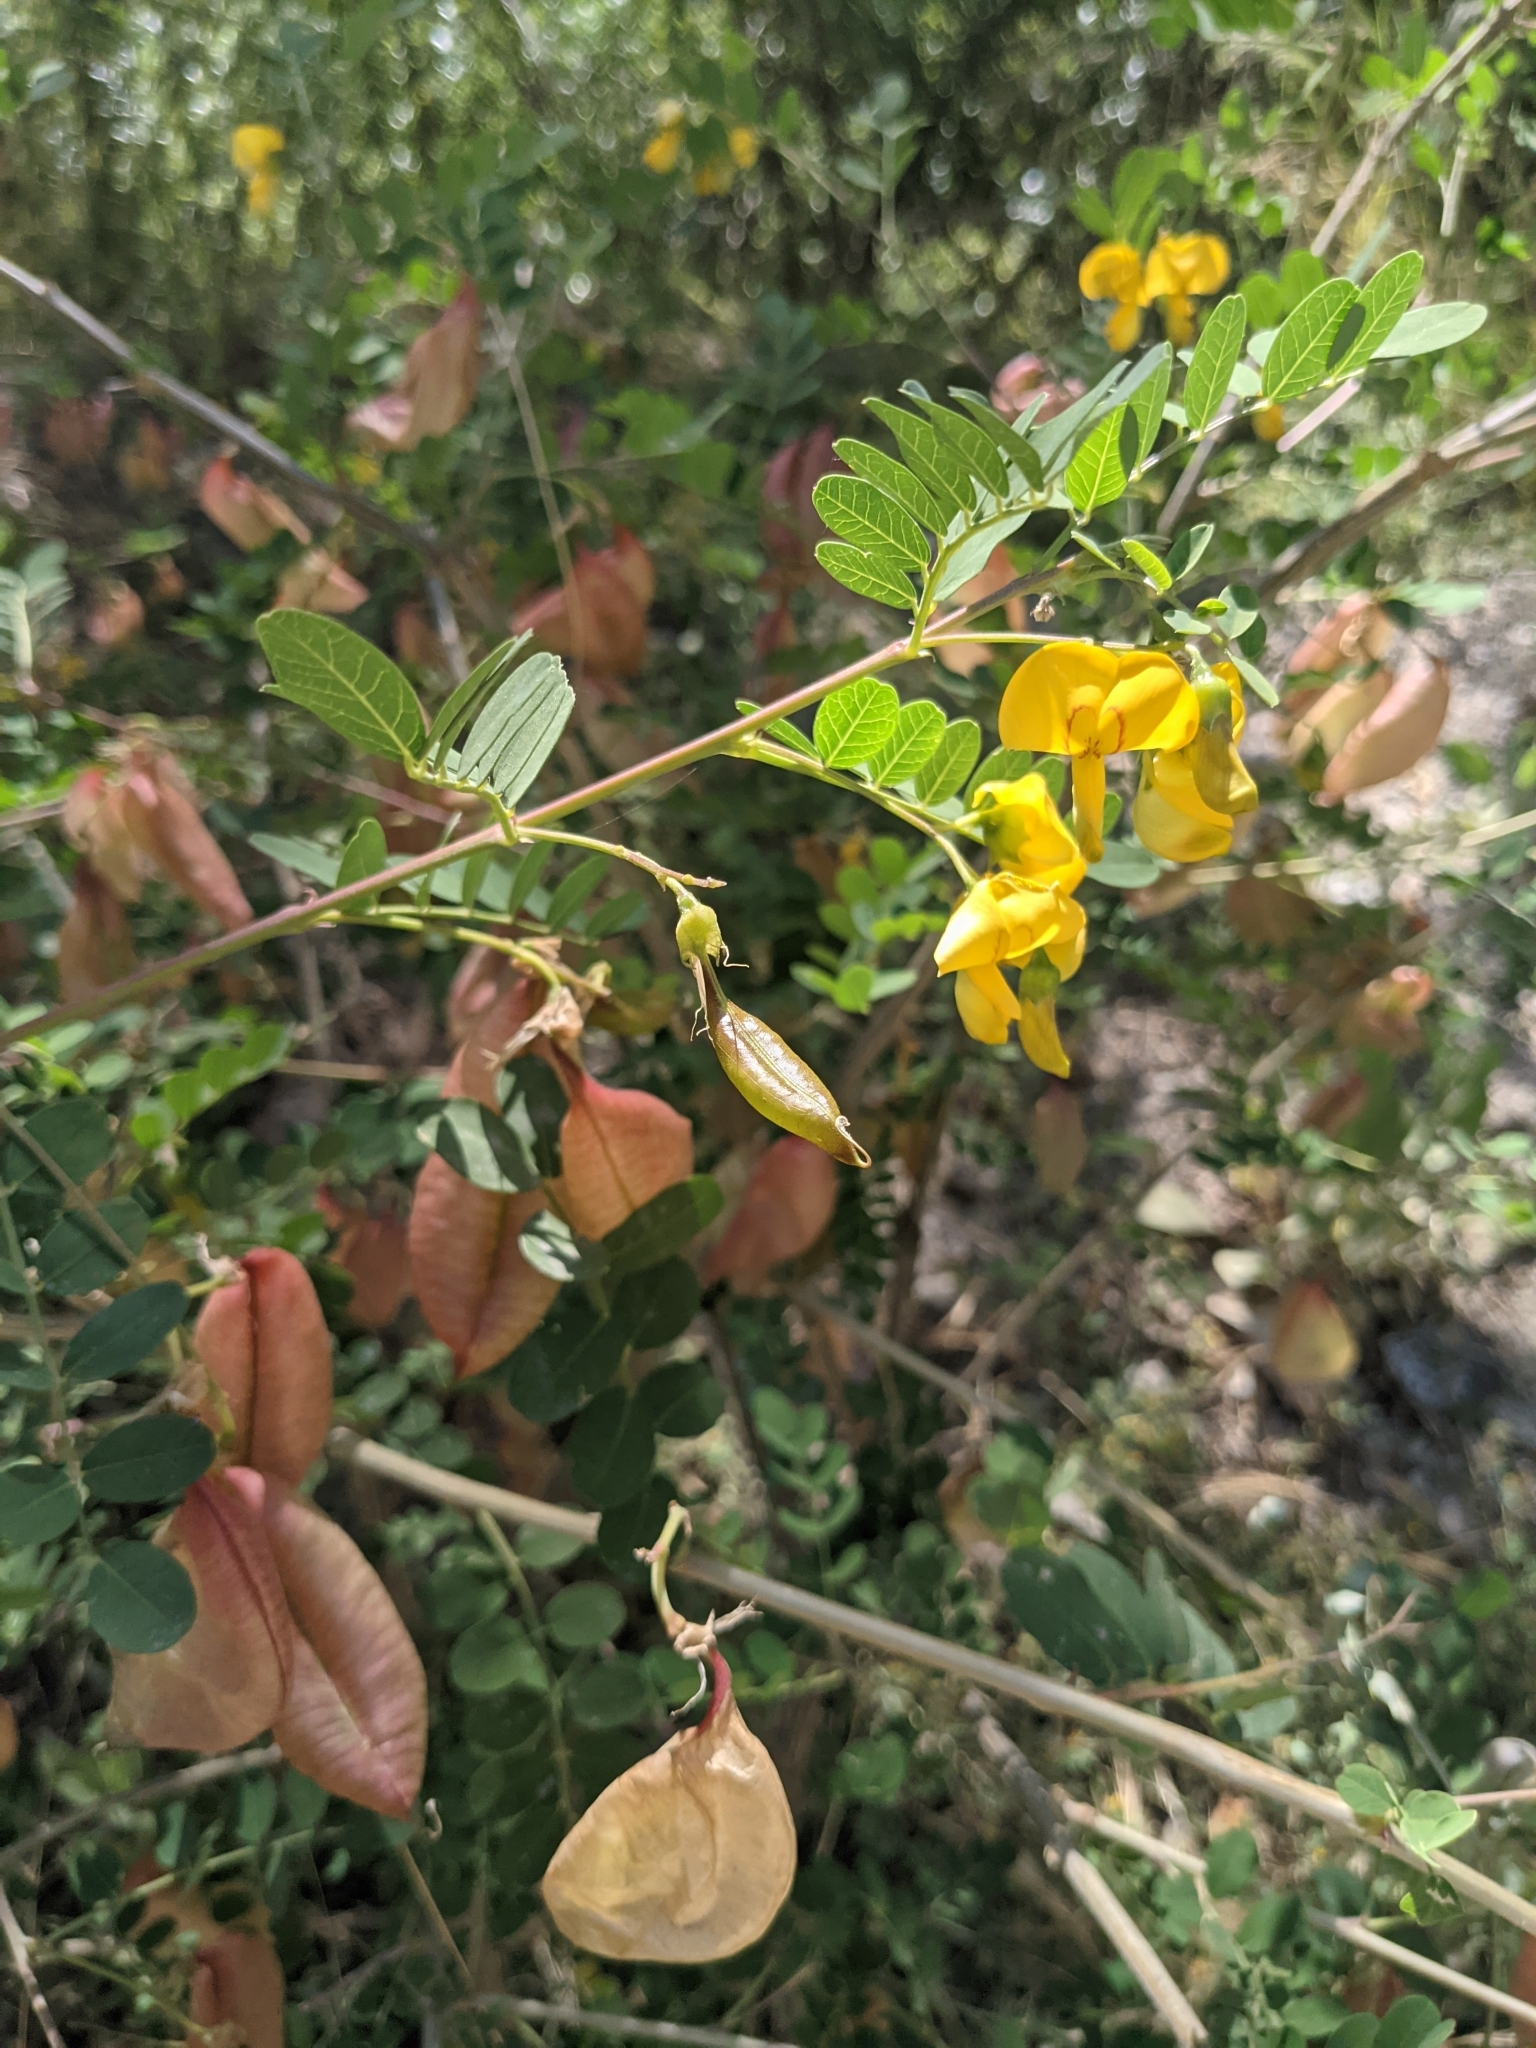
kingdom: Plantae
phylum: Tracheophyta
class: Magnoliopsida
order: Fabales
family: Fabaceae
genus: Colutea
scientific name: Colutea arborescens
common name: Bladder-senna
